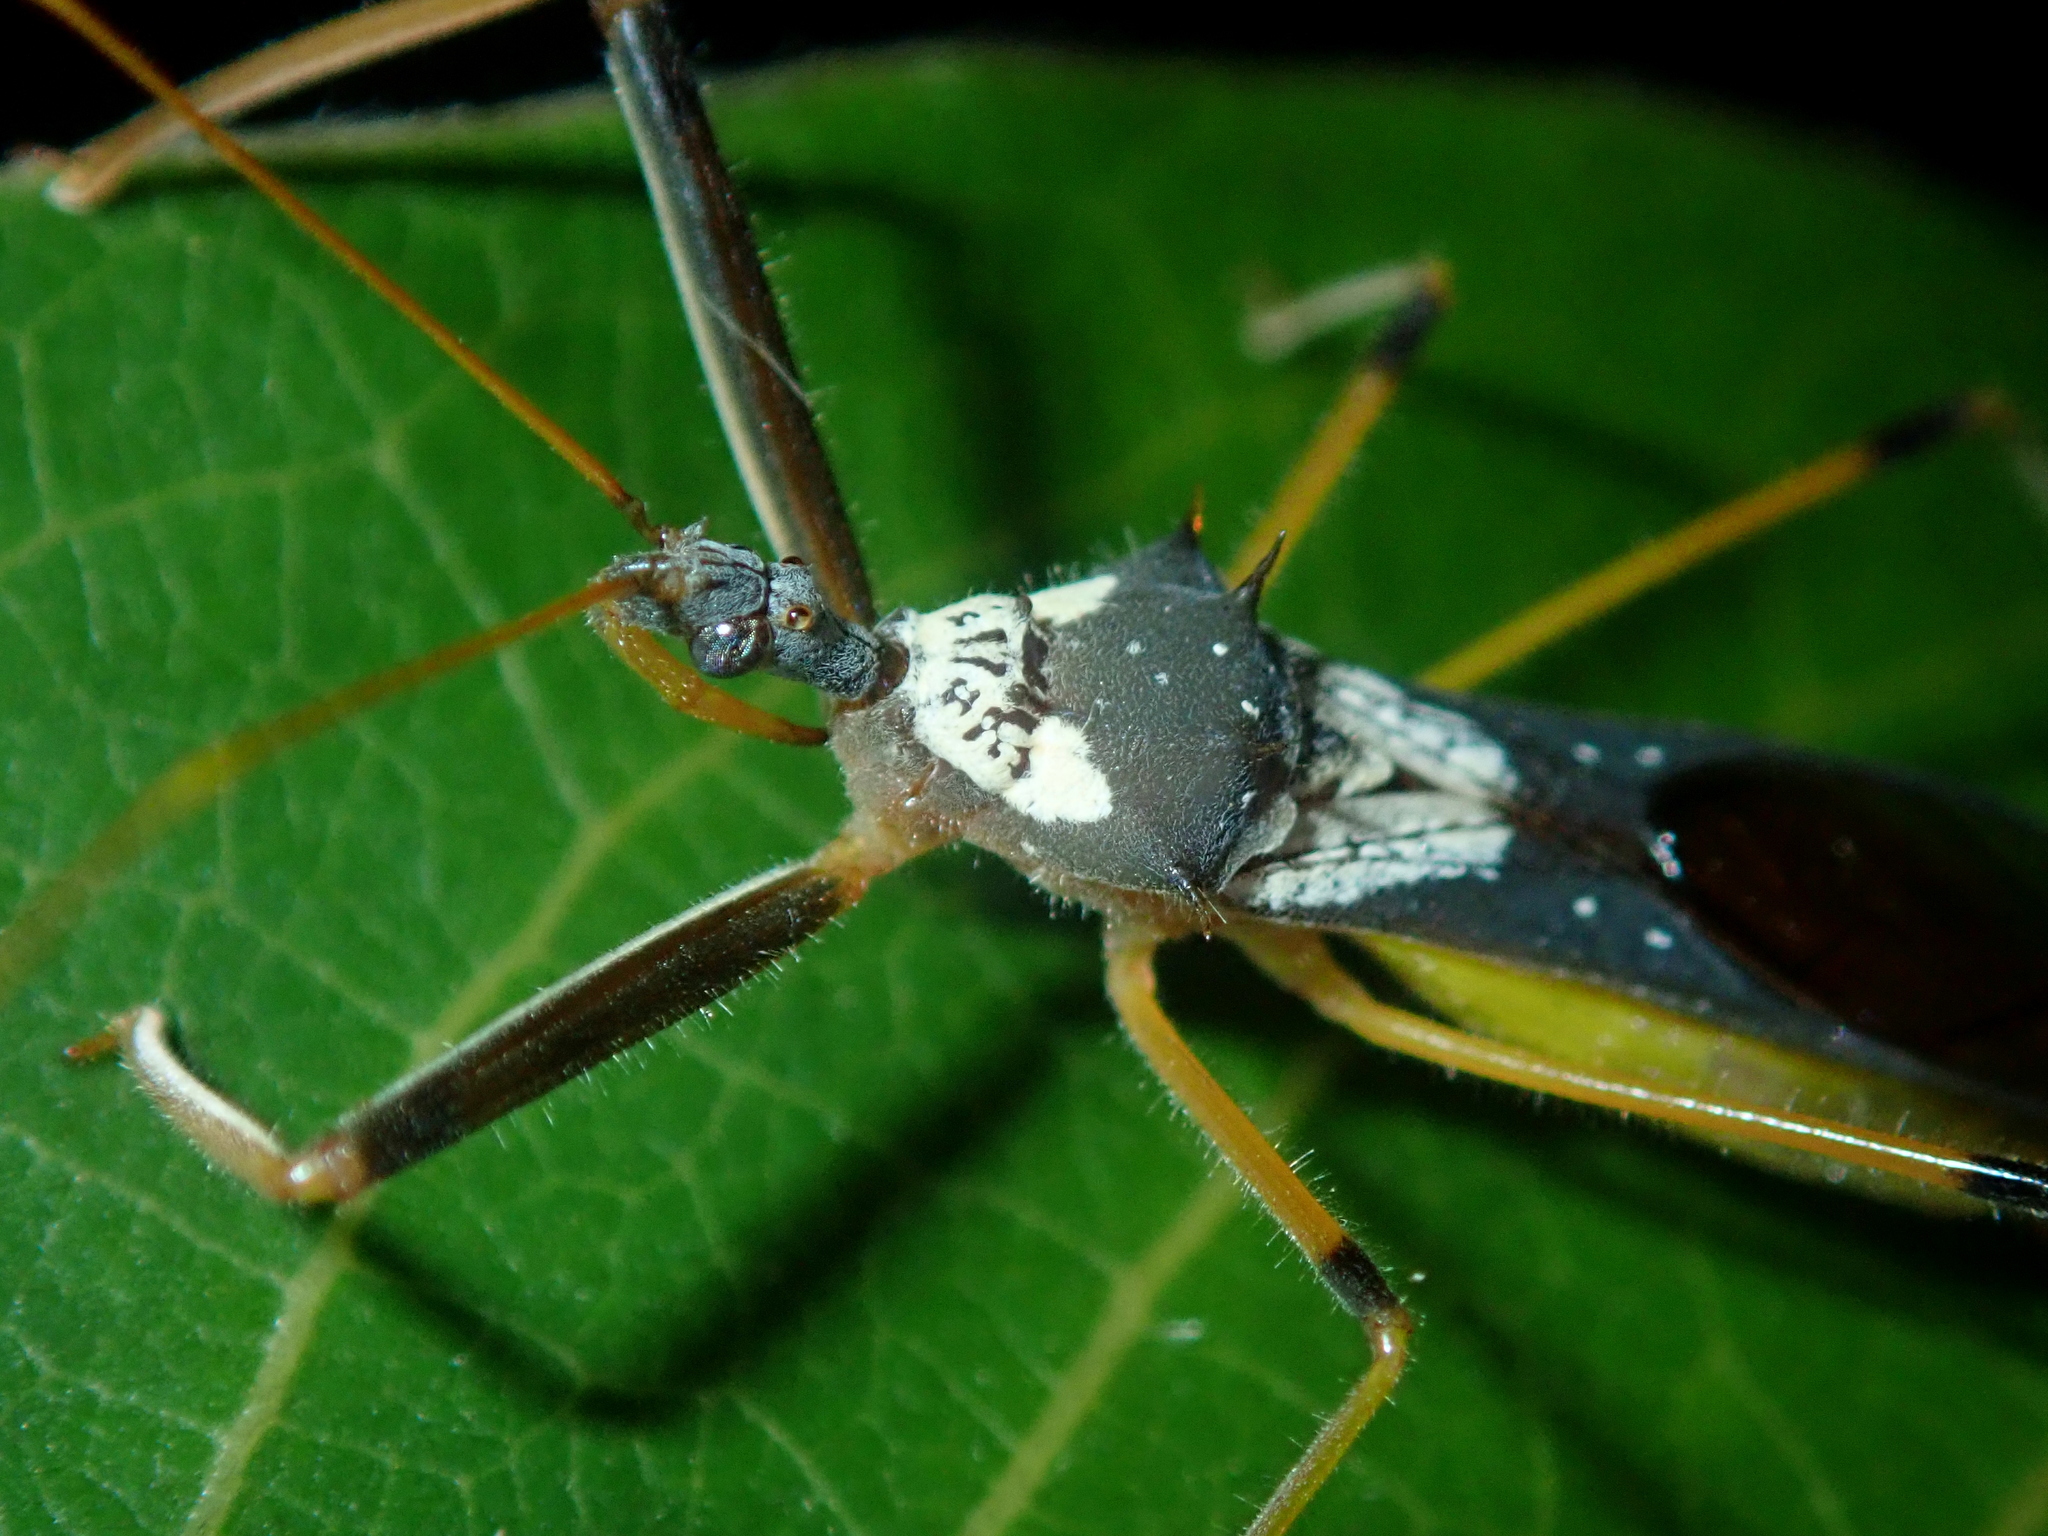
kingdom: Animalia
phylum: Arthropoda
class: Insecta
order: Hemiptera
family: Reduviidae
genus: Heza
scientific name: Heza insignis
